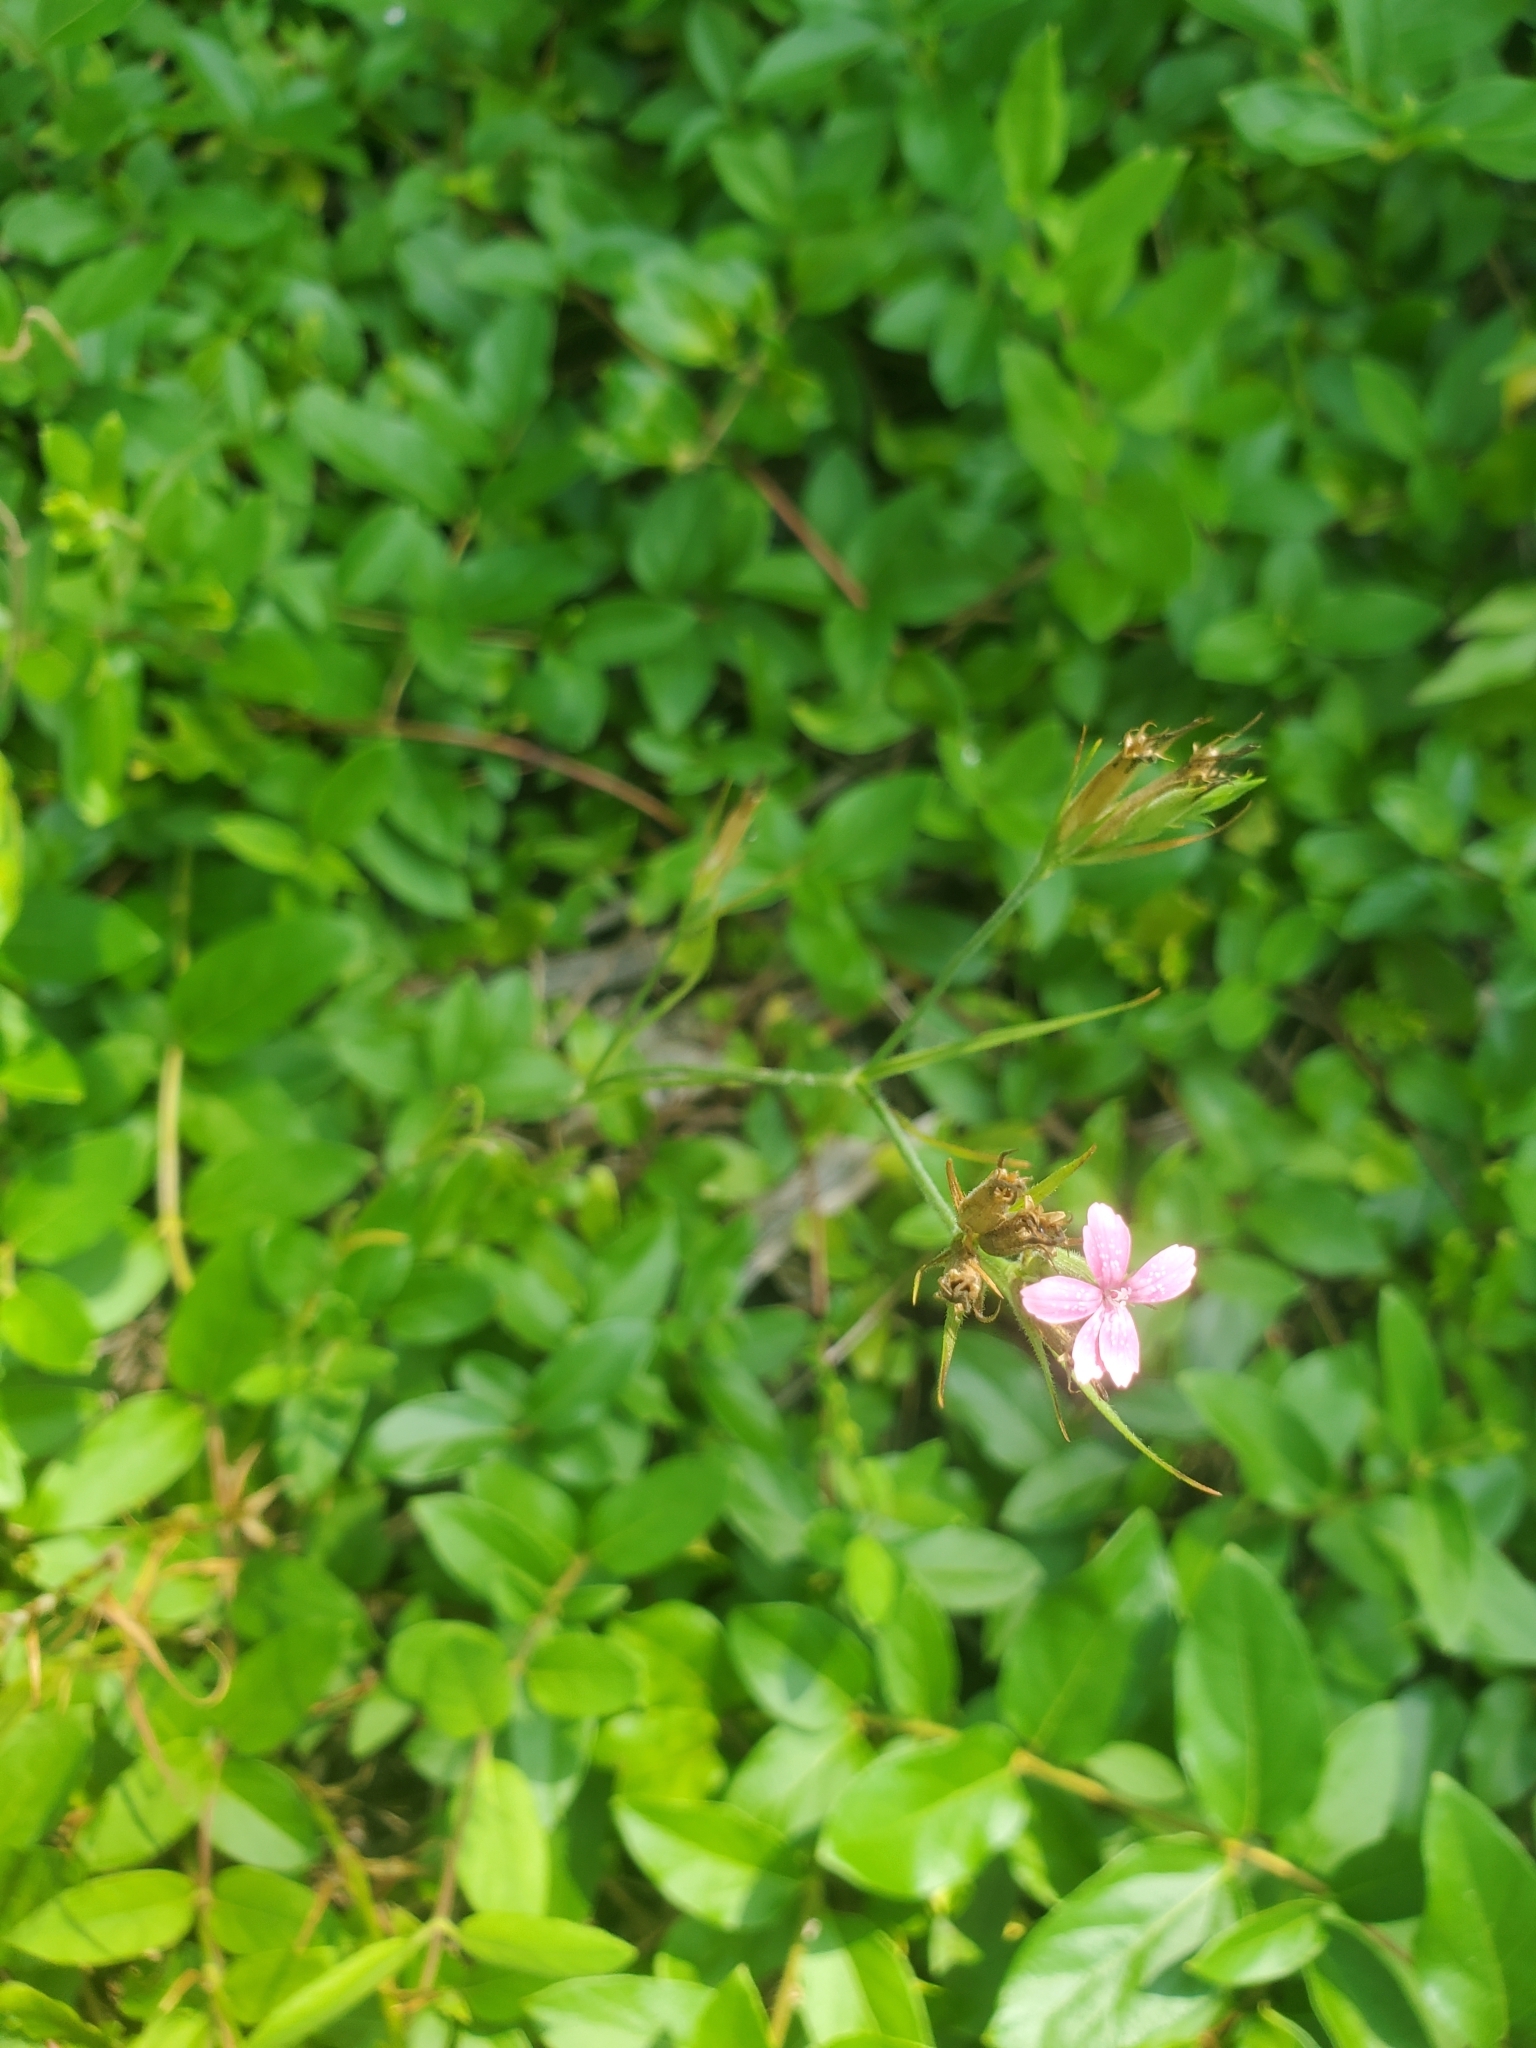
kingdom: Plantae
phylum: Tracheophyta
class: Magnoliopsida
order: Caryophyllales
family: Caryophyllaceae
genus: Dianthus
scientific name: Dianthus armeria
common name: Deptford pink
